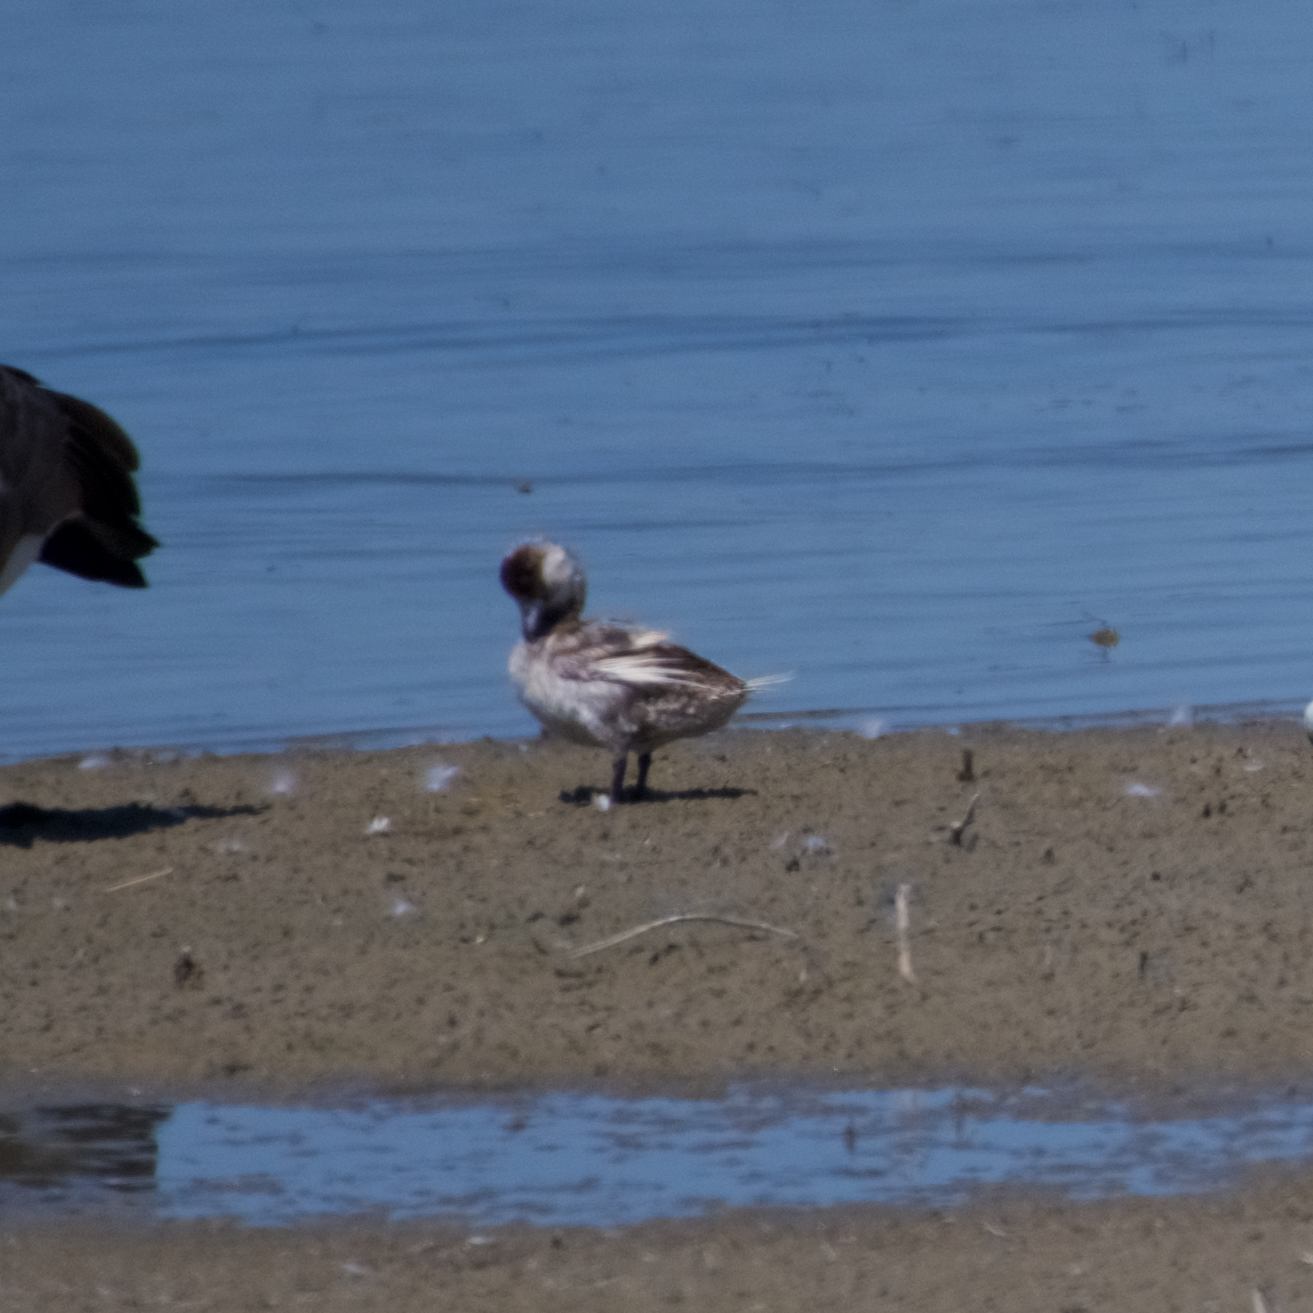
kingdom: Animalia
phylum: Chordata
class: Aves
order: Anseriformes
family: Anatidae
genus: Bucephala
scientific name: Bucephala albeola
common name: Bufflehead
